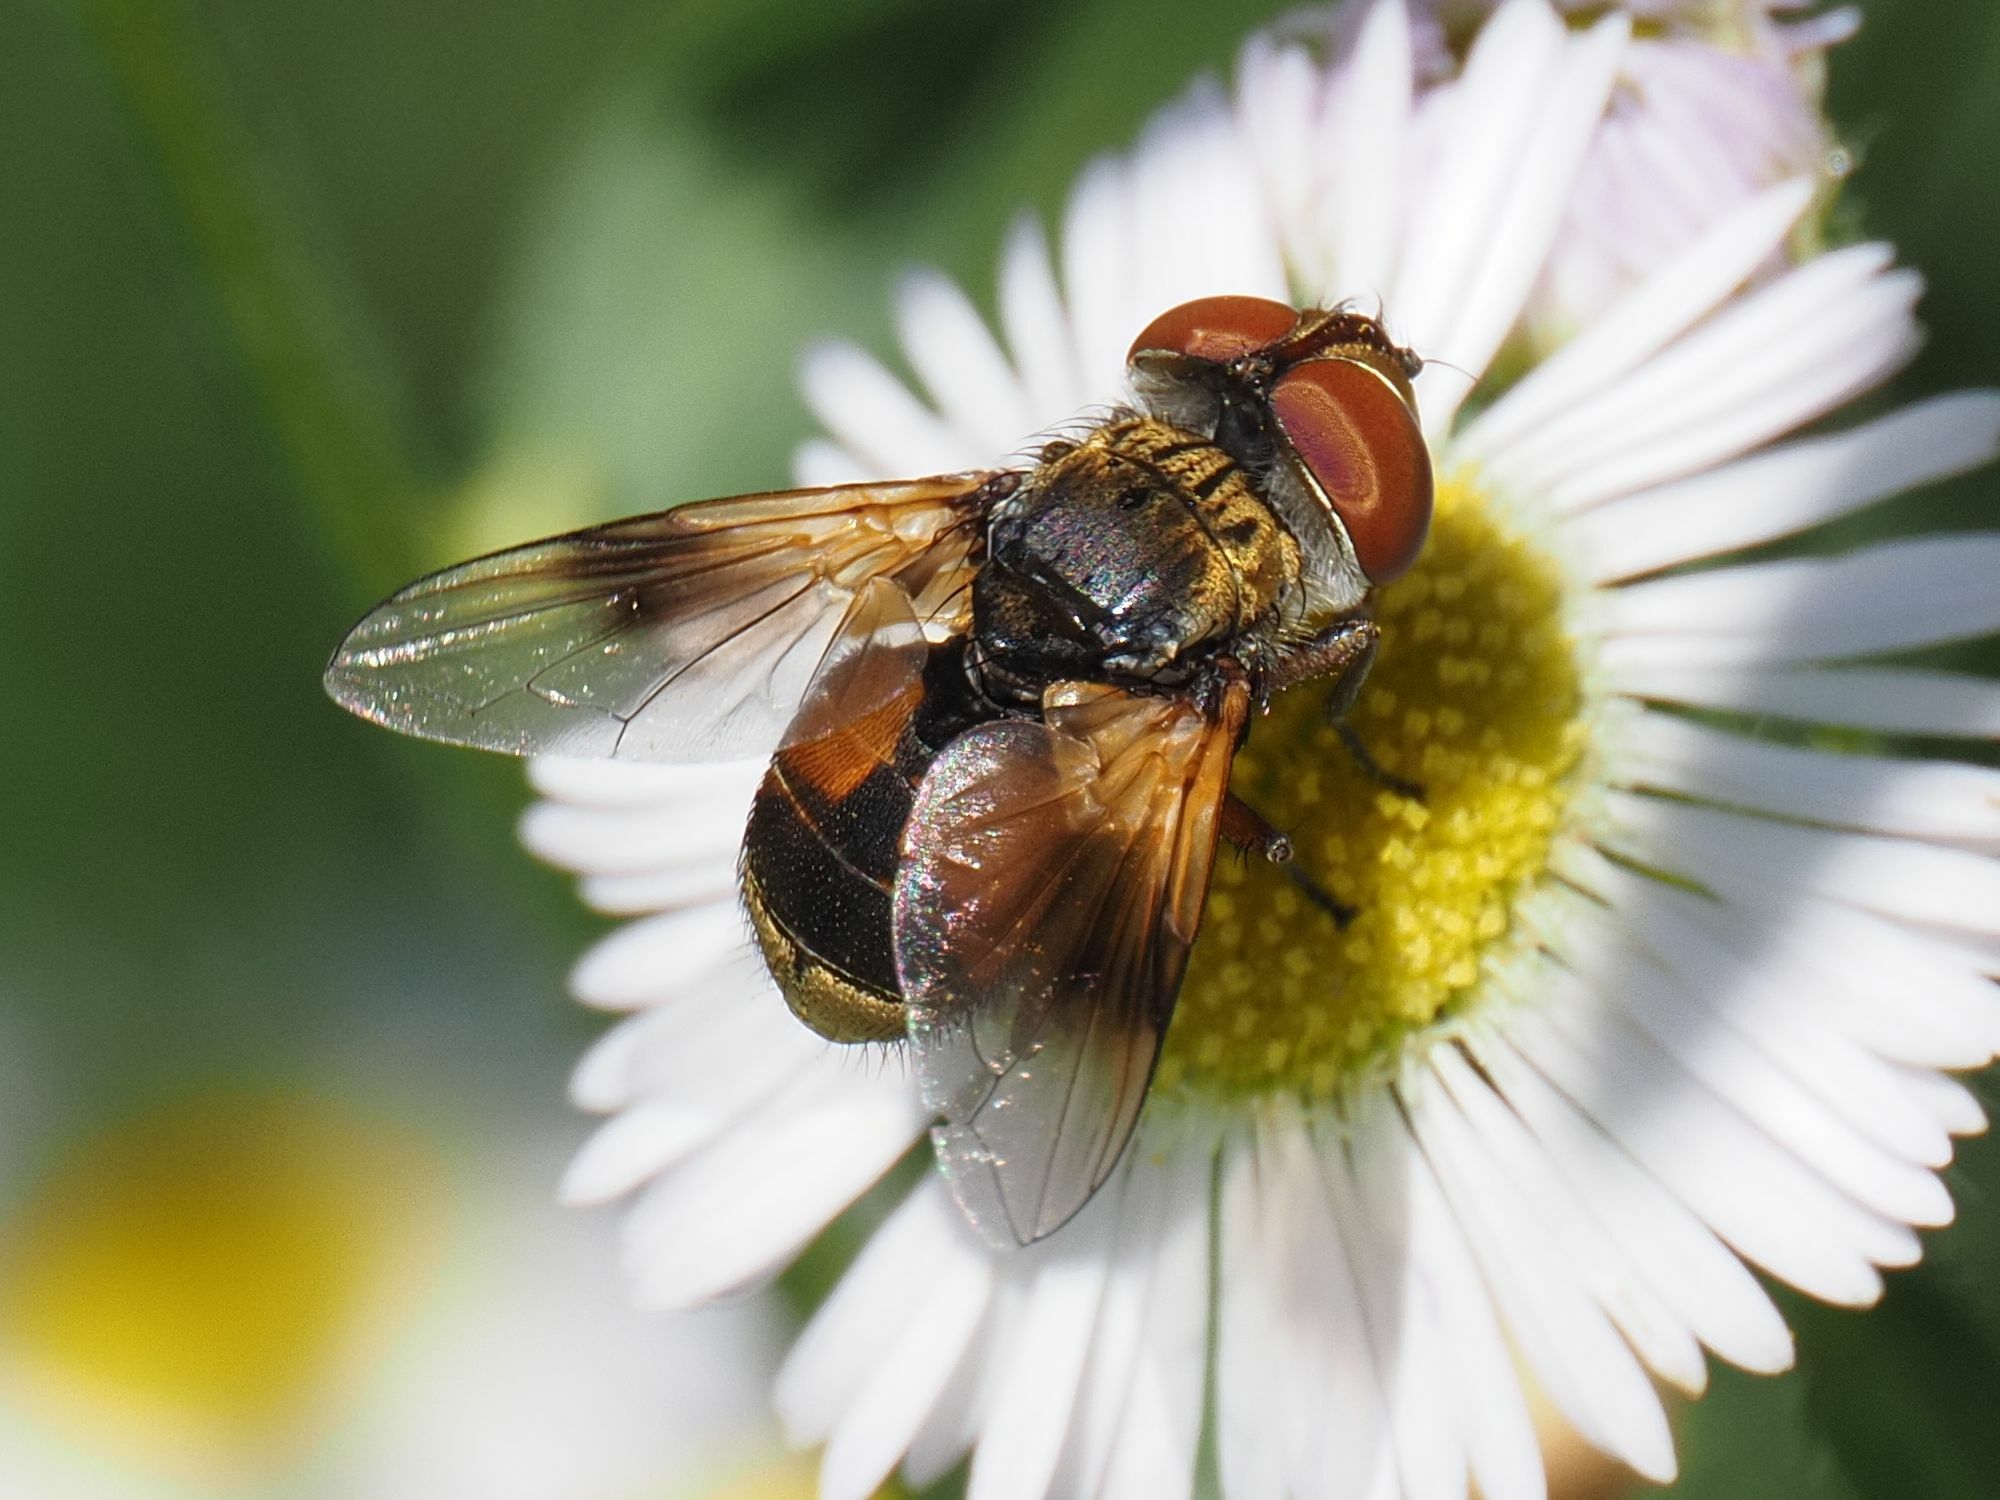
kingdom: Animalia
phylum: Arthropoda
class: Insecta
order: Diptera
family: Tachinidae
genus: Ectophasia
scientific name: Ectophasia crassipennis
